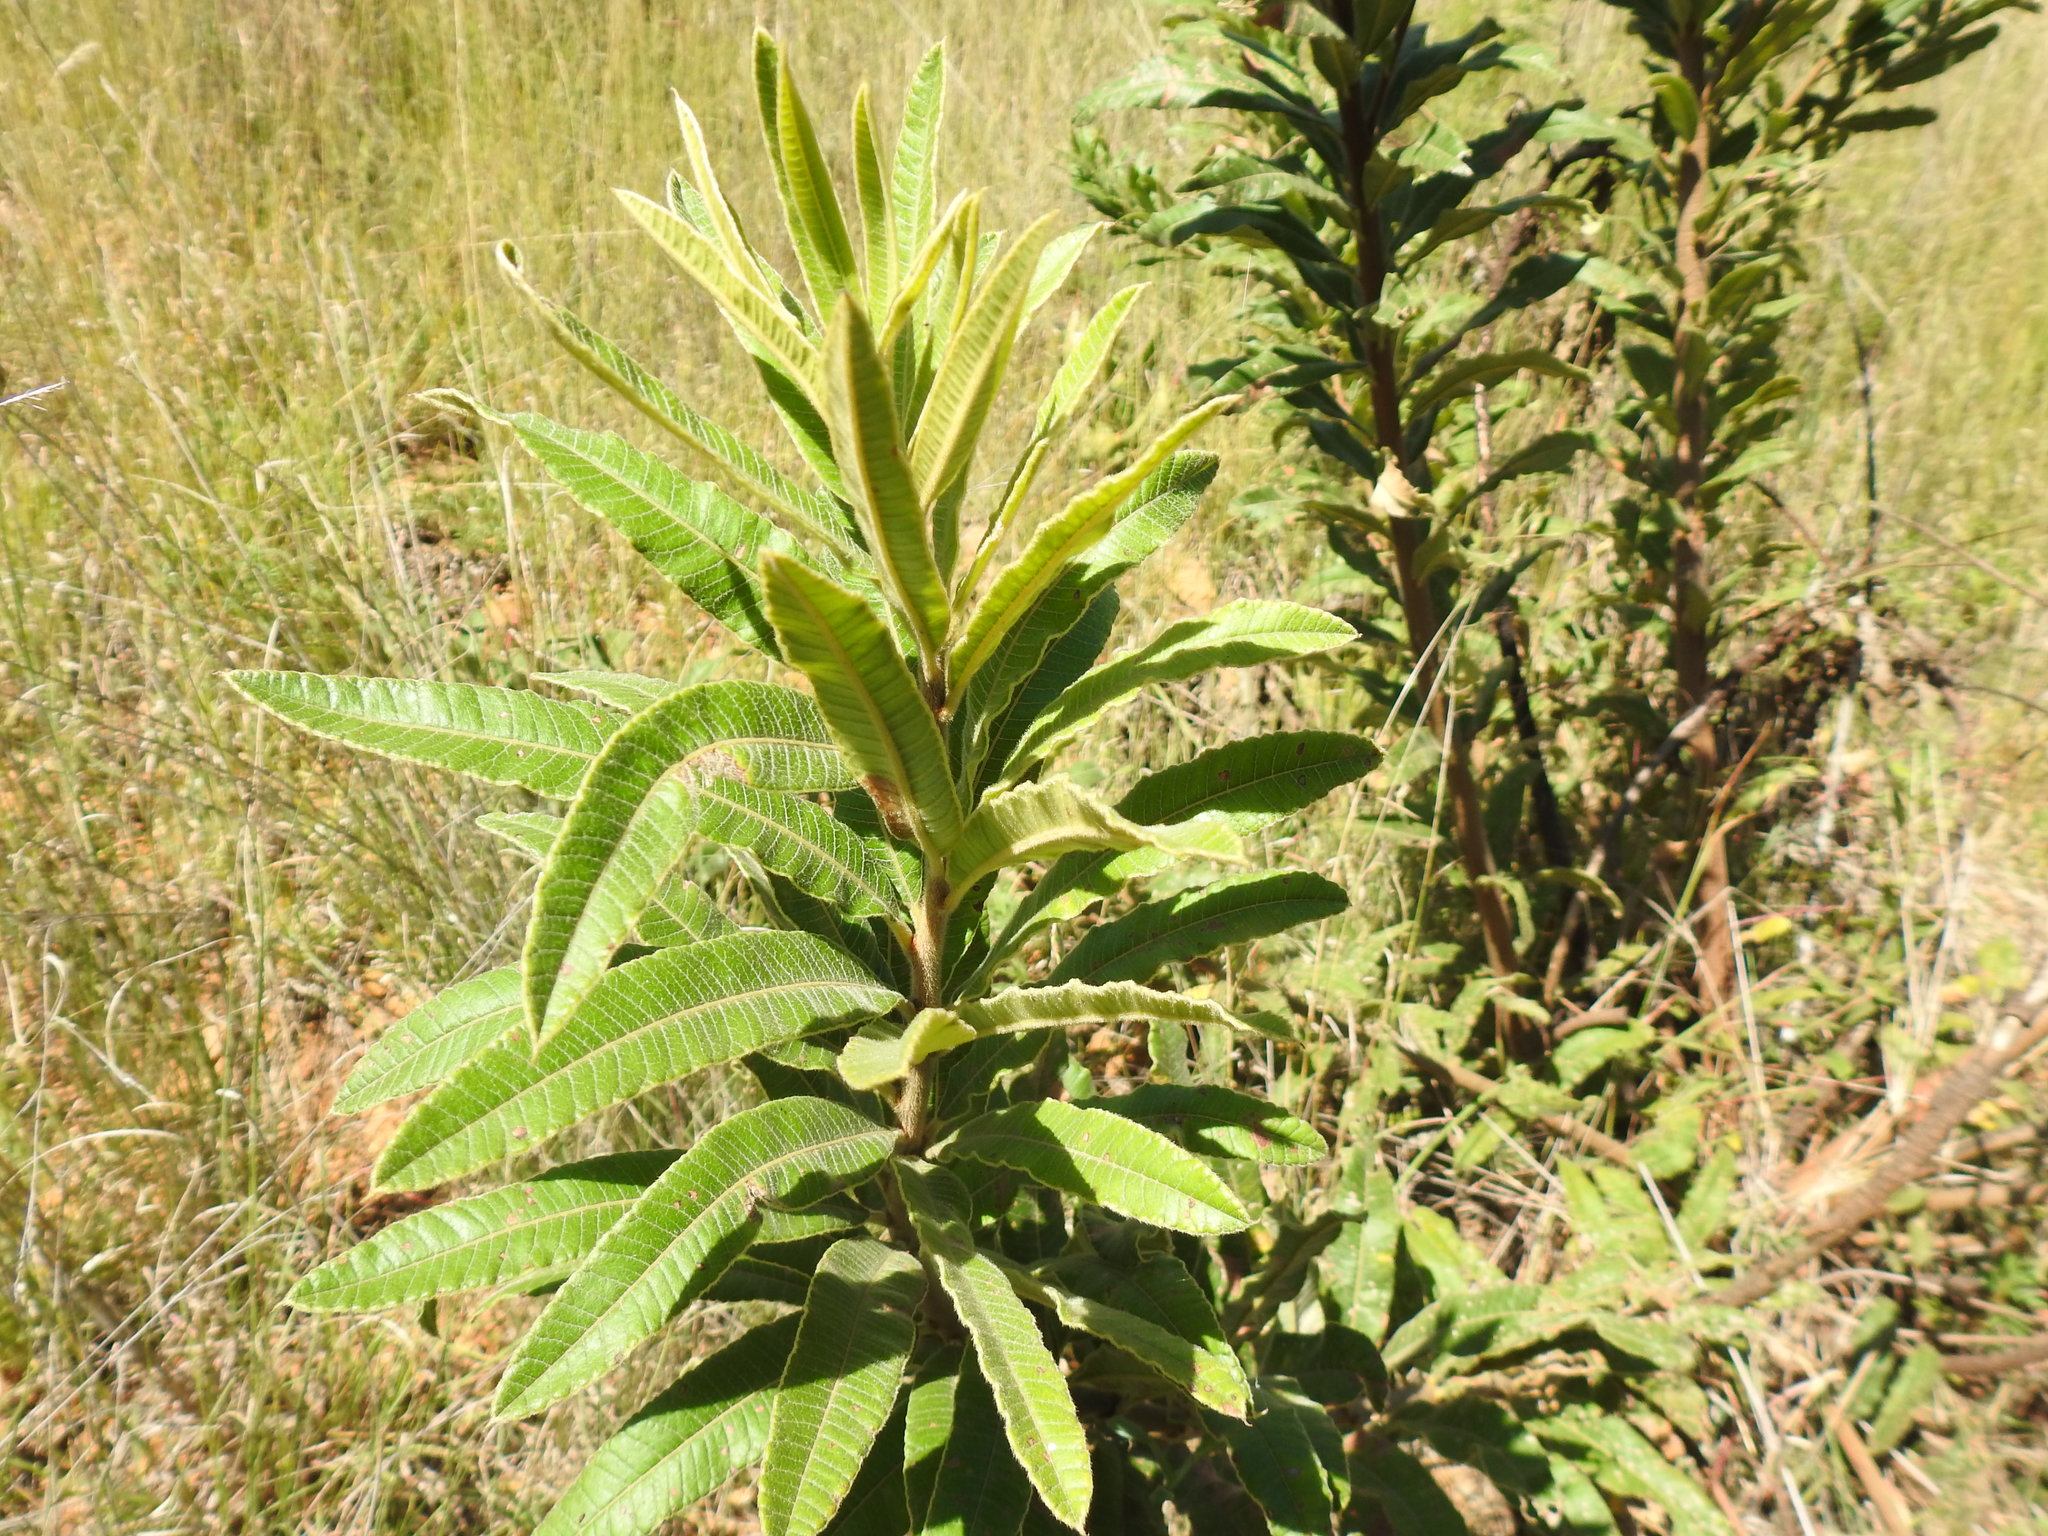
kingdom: Plantae
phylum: Tracheophyta
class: Magnoliopsida
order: Sapindales
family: Anacardiaceae
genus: Ozoroa
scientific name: Ozoroa paniculosa
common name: Bushveld ozoroa
